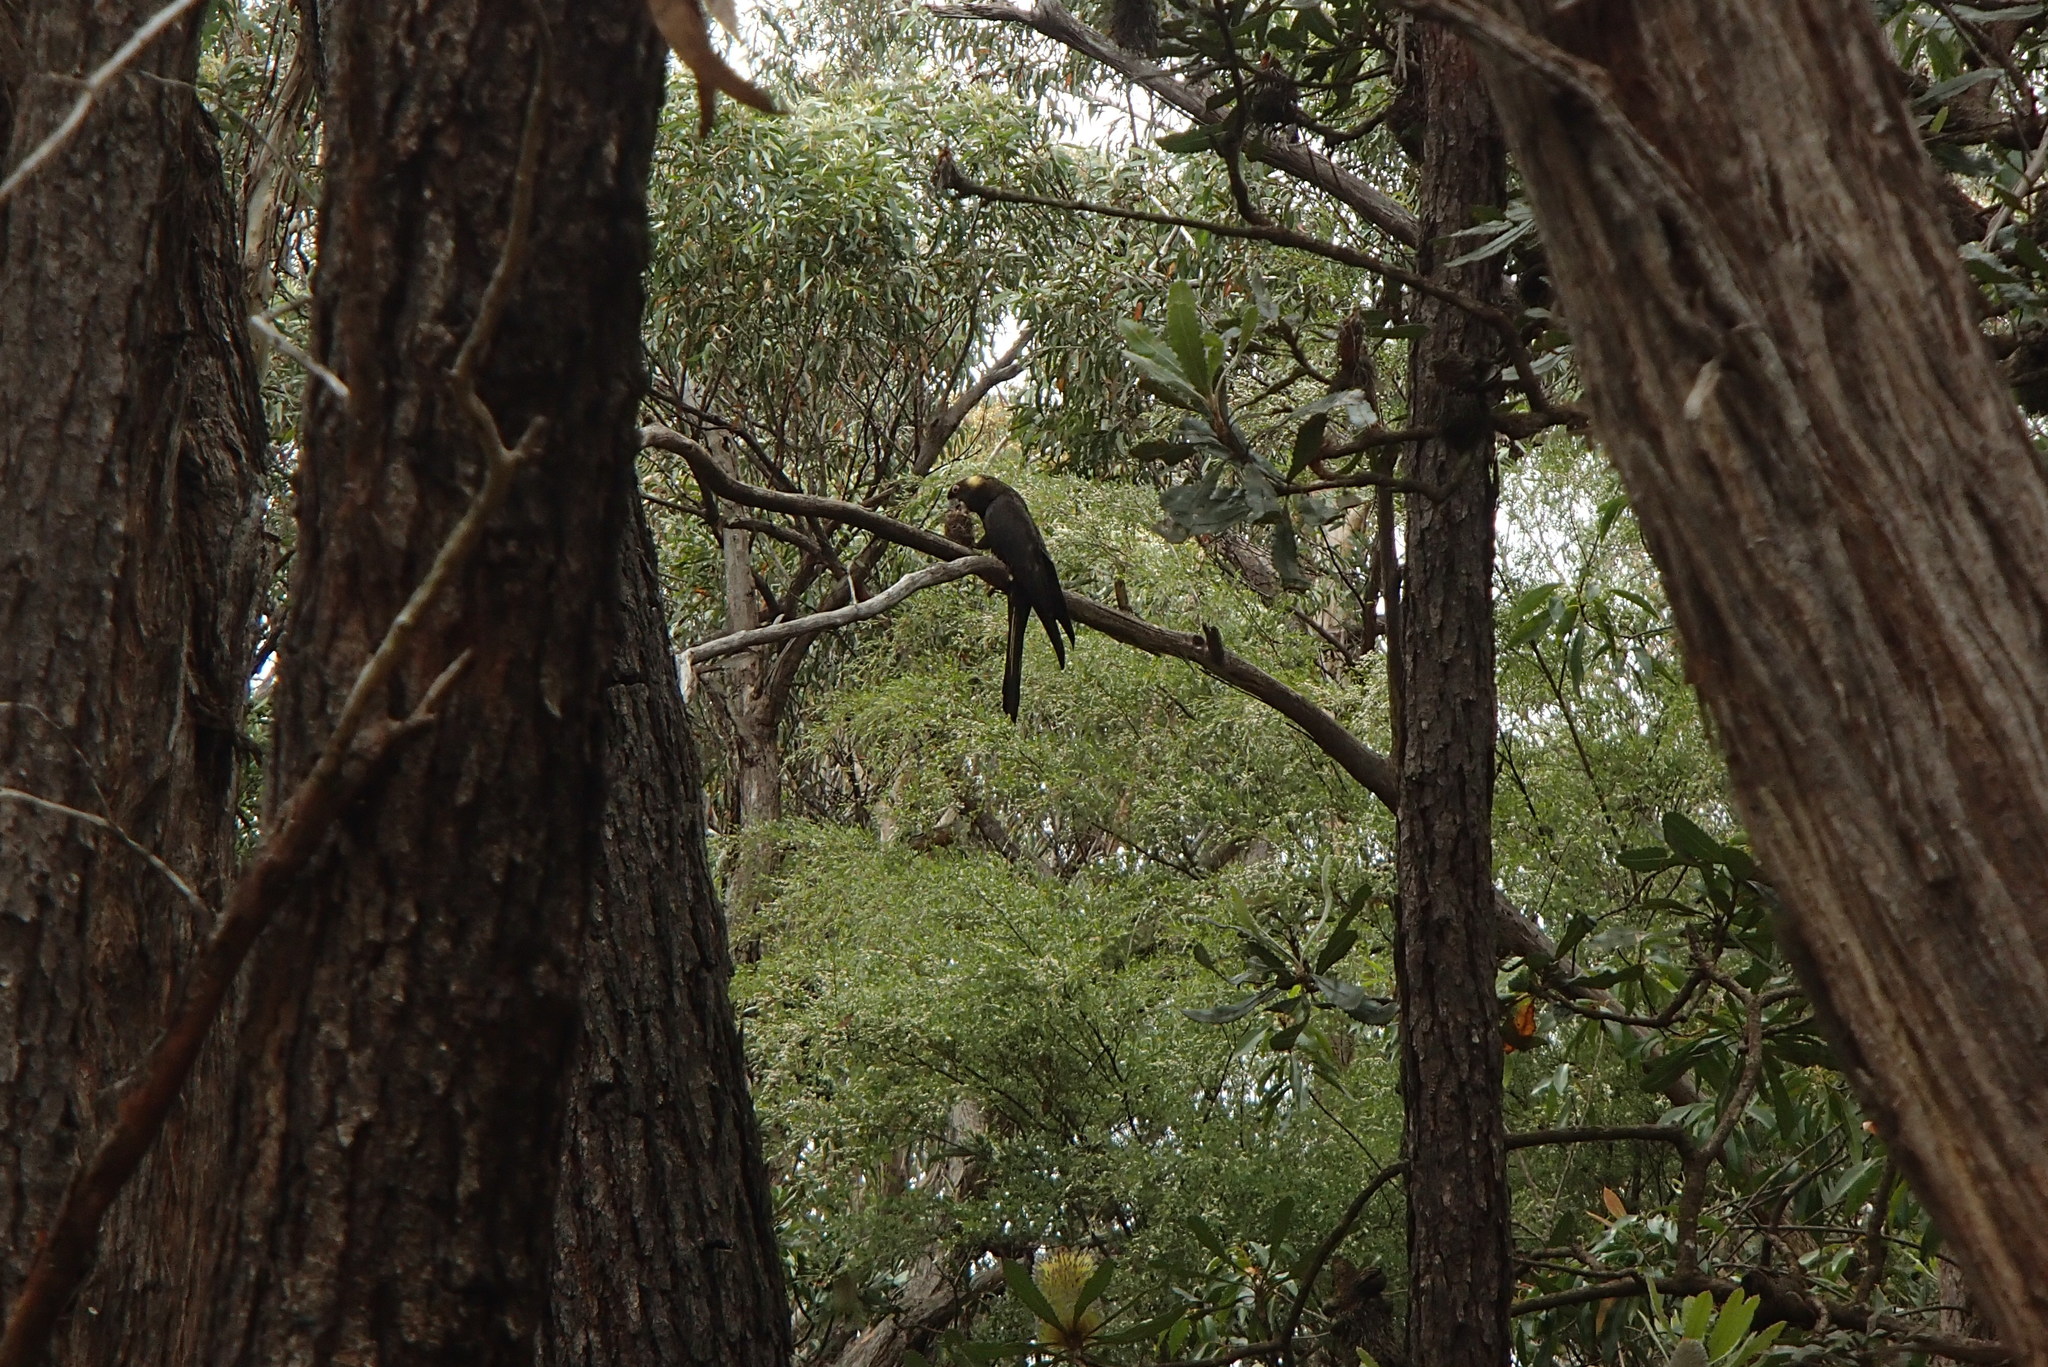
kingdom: Animalia
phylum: Chordata
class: Aves
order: Psittaciformes
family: Cacatuidae
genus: Zanda
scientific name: Zanda funerea
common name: Yellow-tailed black-cockatoo
